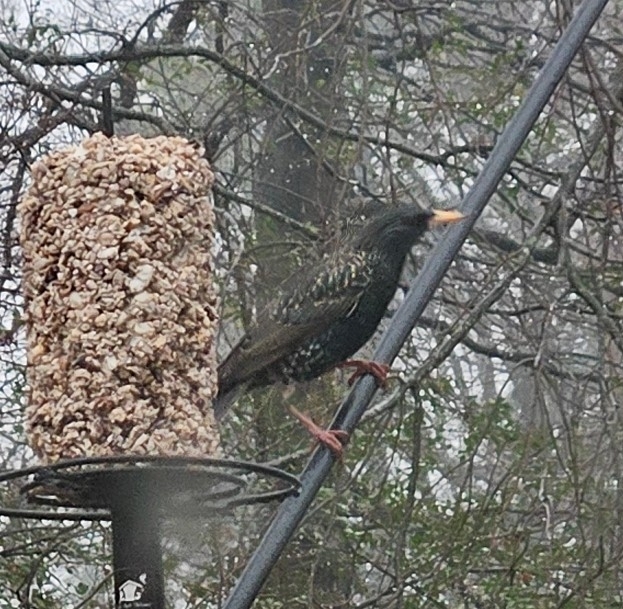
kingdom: Animalia
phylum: Chordata
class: Aves
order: Passeriformes
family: Sturnidae
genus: Sturnus
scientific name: Sturnus vulgaris
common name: Common starling
